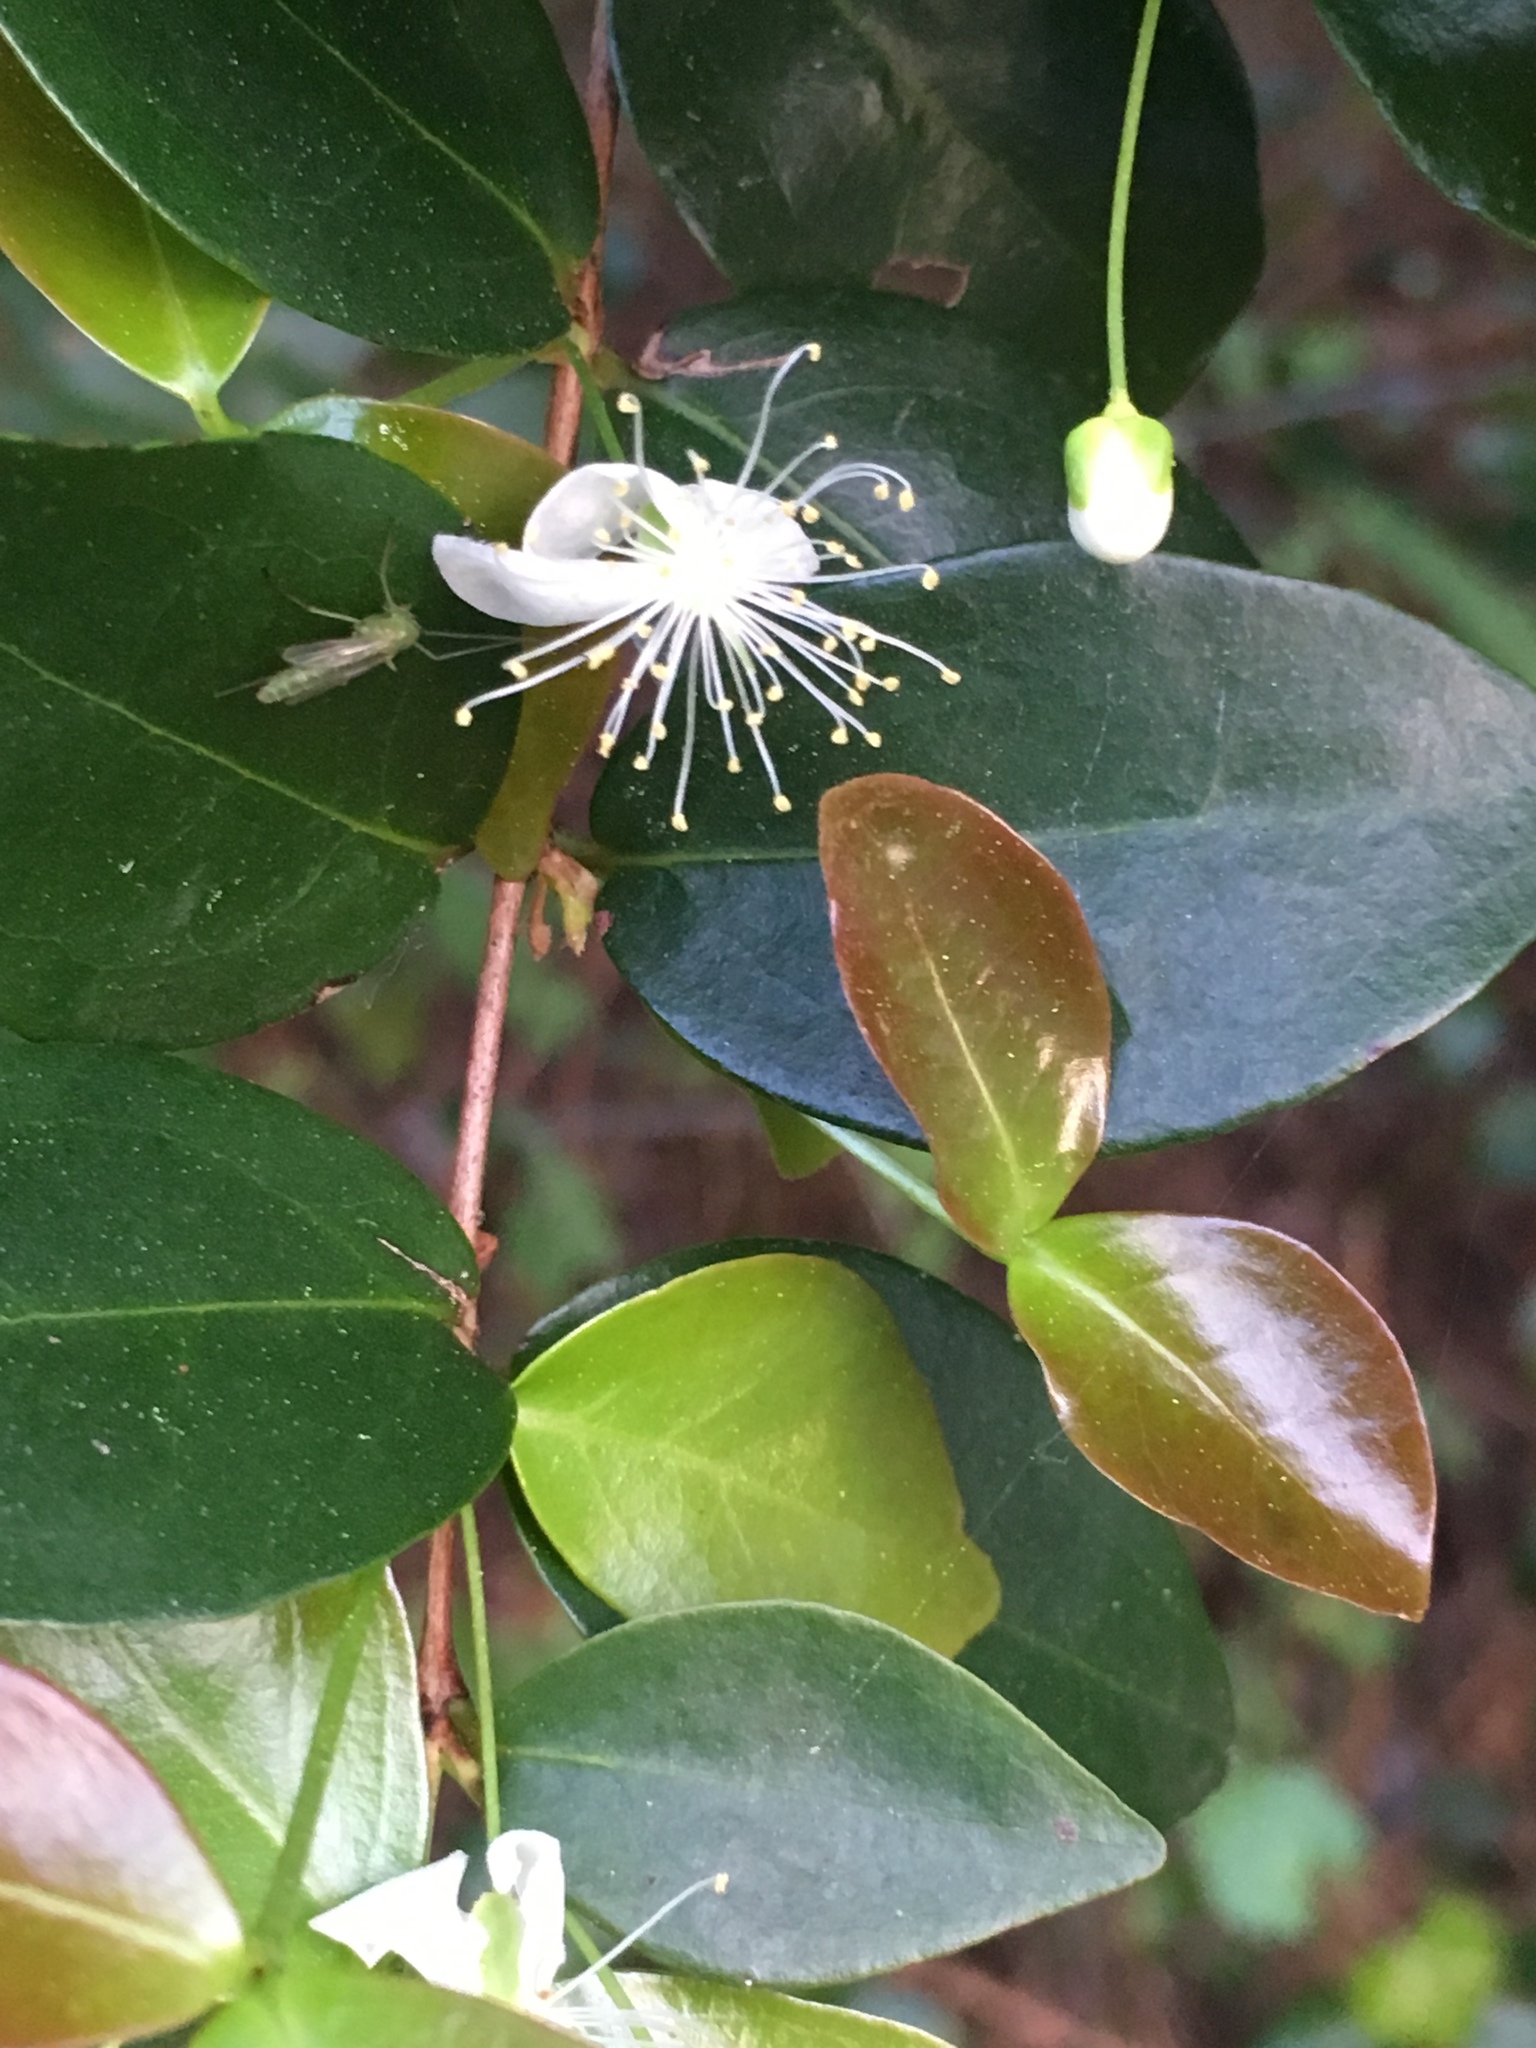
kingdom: Plantae
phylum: Tracheophyta
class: Magnoliopsida
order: Myrtales
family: Myrtaceae
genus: Eugenia
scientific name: Eugenia uniflora
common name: Surinam cherry
